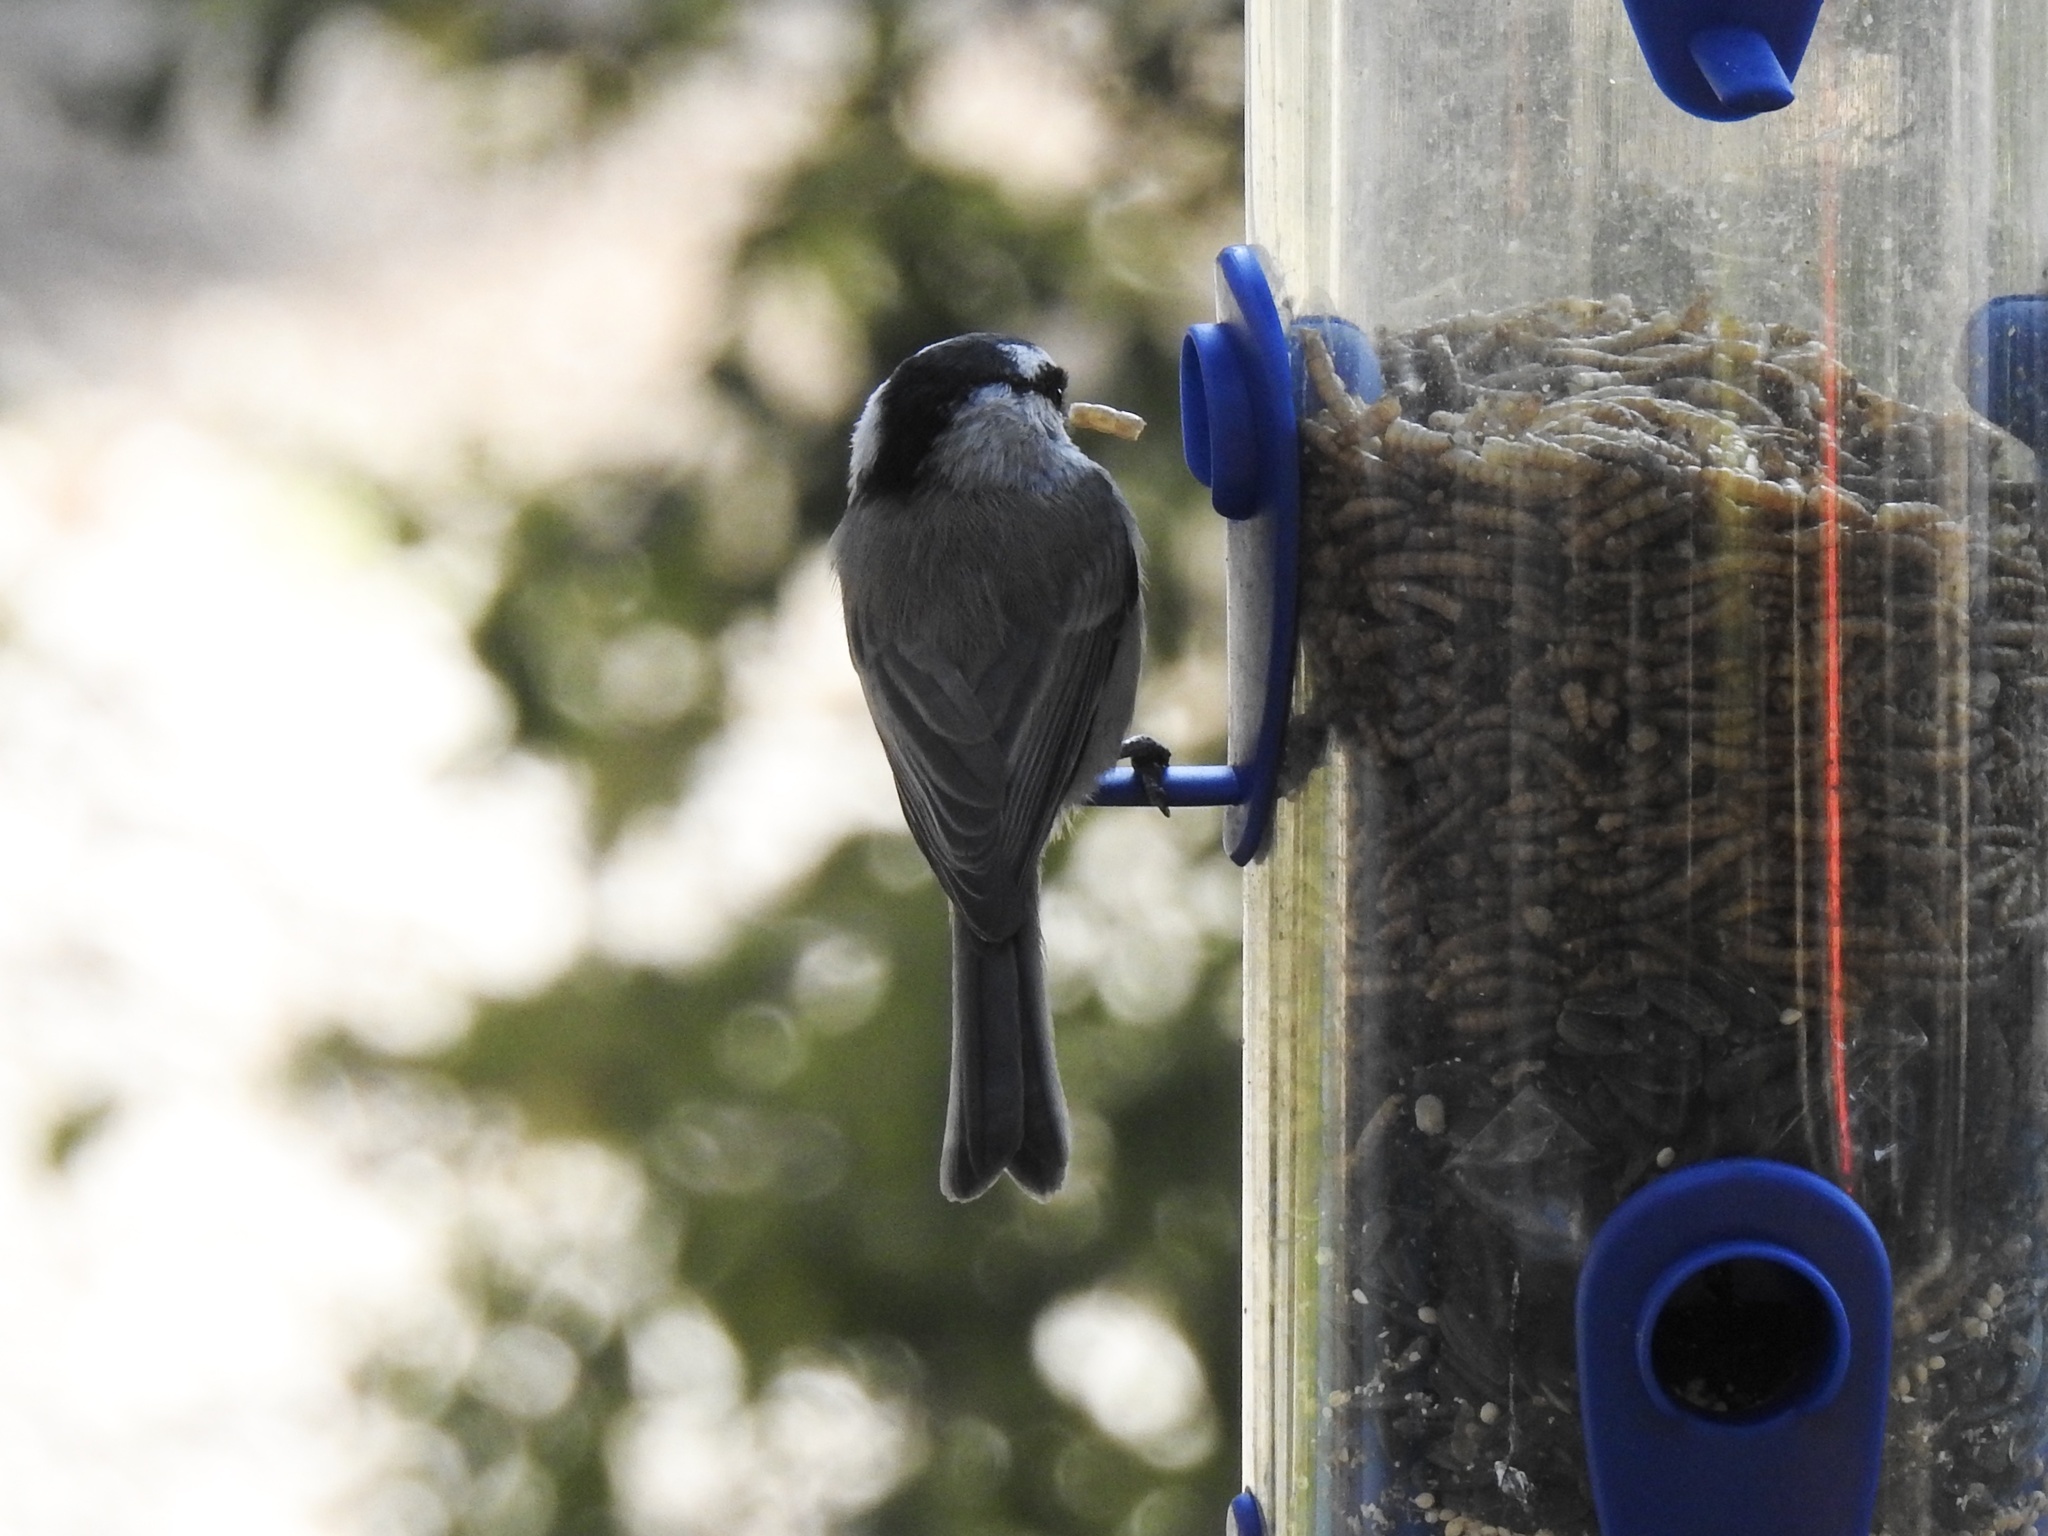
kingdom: Animalia
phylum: Chordata
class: Aves
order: Passeriformes
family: Paridae
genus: Poecile
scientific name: Poecile gambeli
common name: Mountain chickadee
